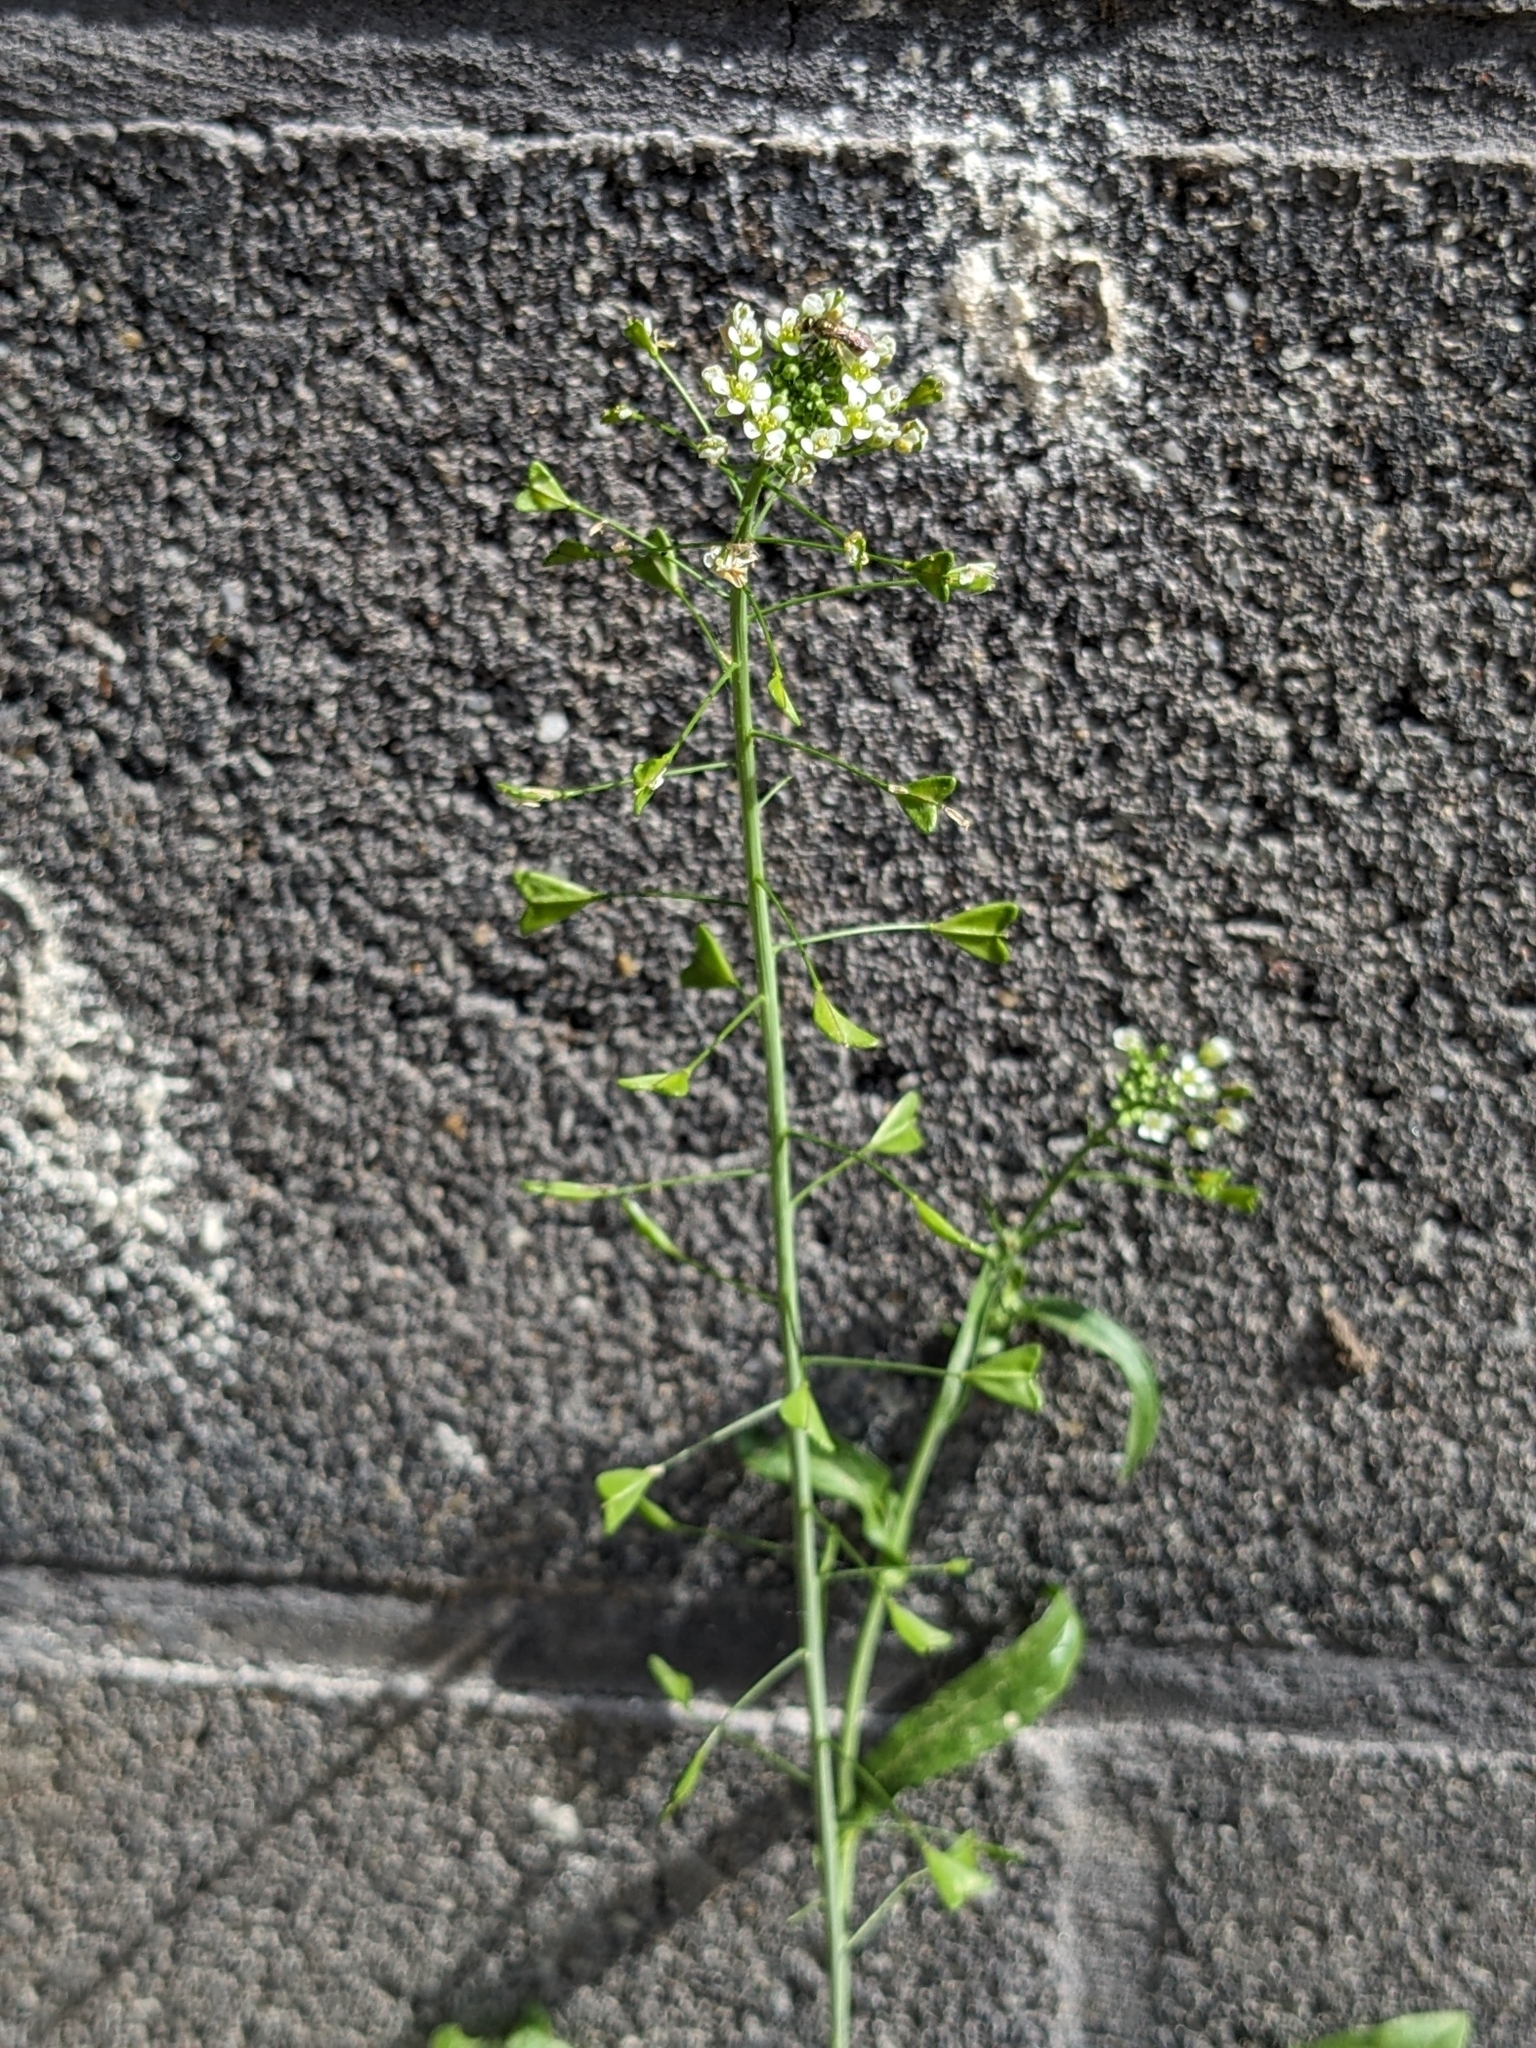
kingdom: Plantae
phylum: Tracheophyta
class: Magnoliopsida
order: Brassicales
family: Brassicaceae
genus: Capsella
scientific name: Capsella bursa-pastoris
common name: Shepherd's purse
